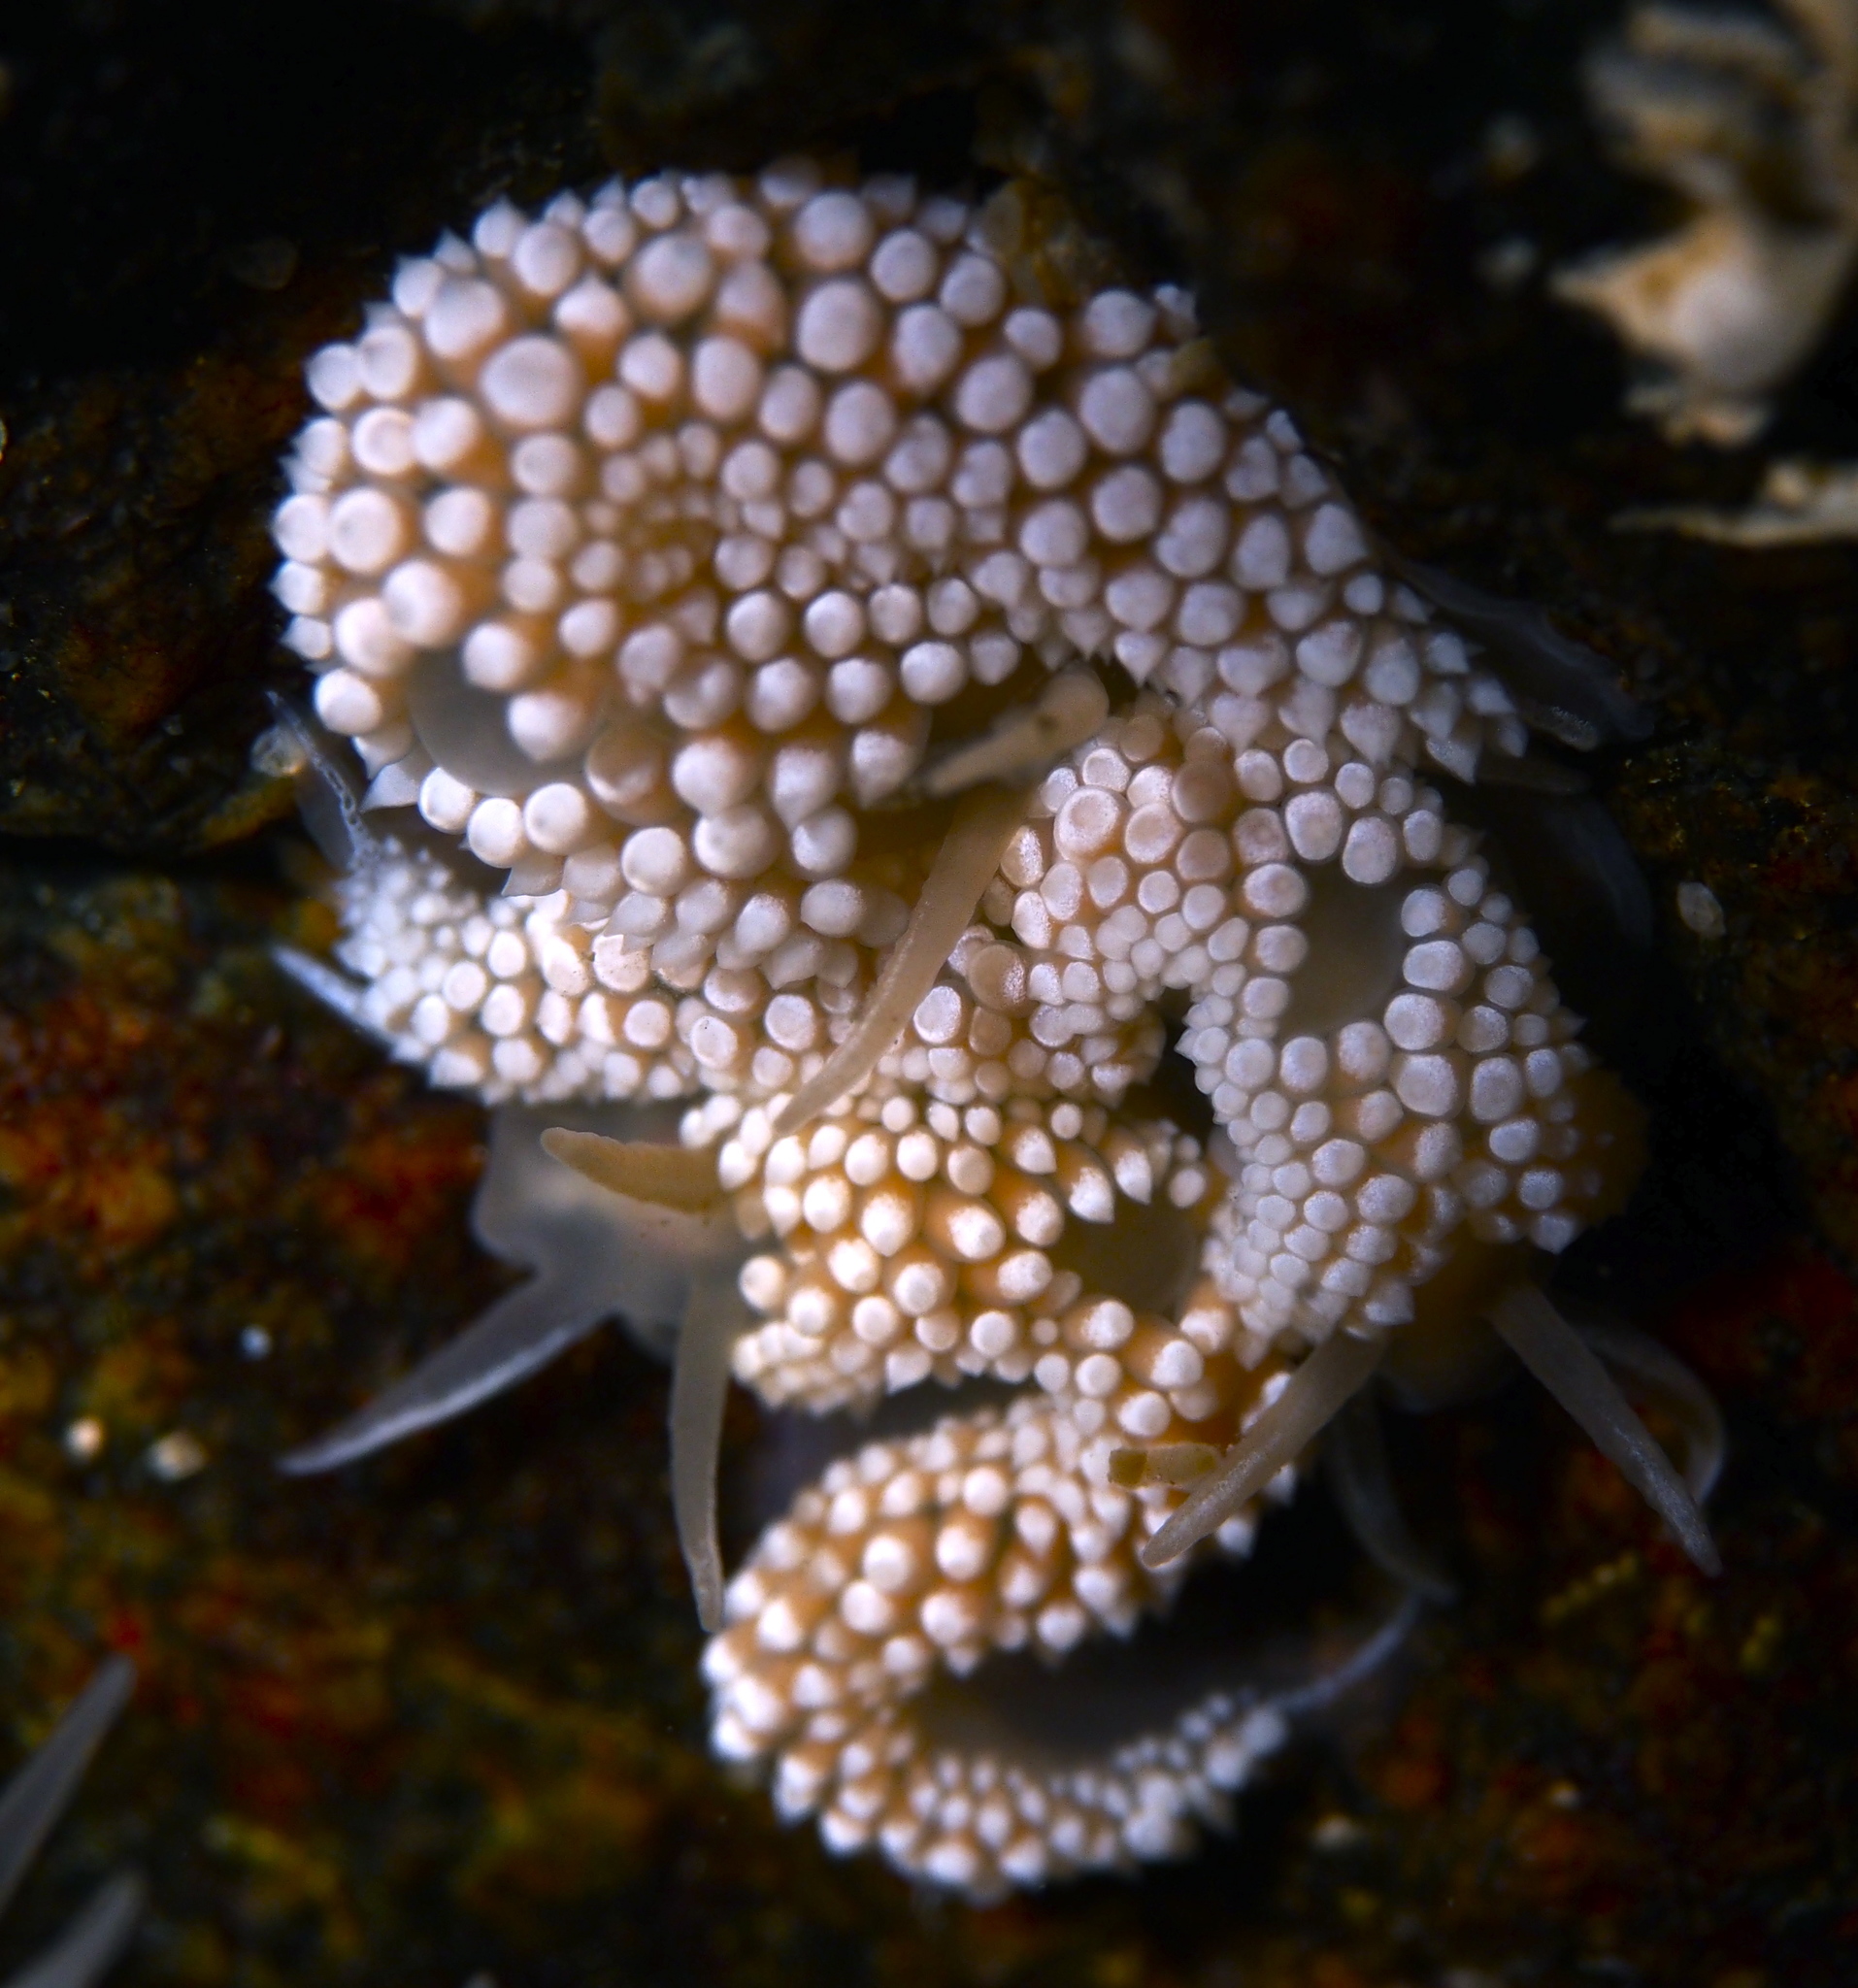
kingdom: Animalia
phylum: Mollusca
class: Gastropoda
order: Nudibranchia
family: Coryphellidae
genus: Coryphella
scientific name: Coryphella verrucosa
